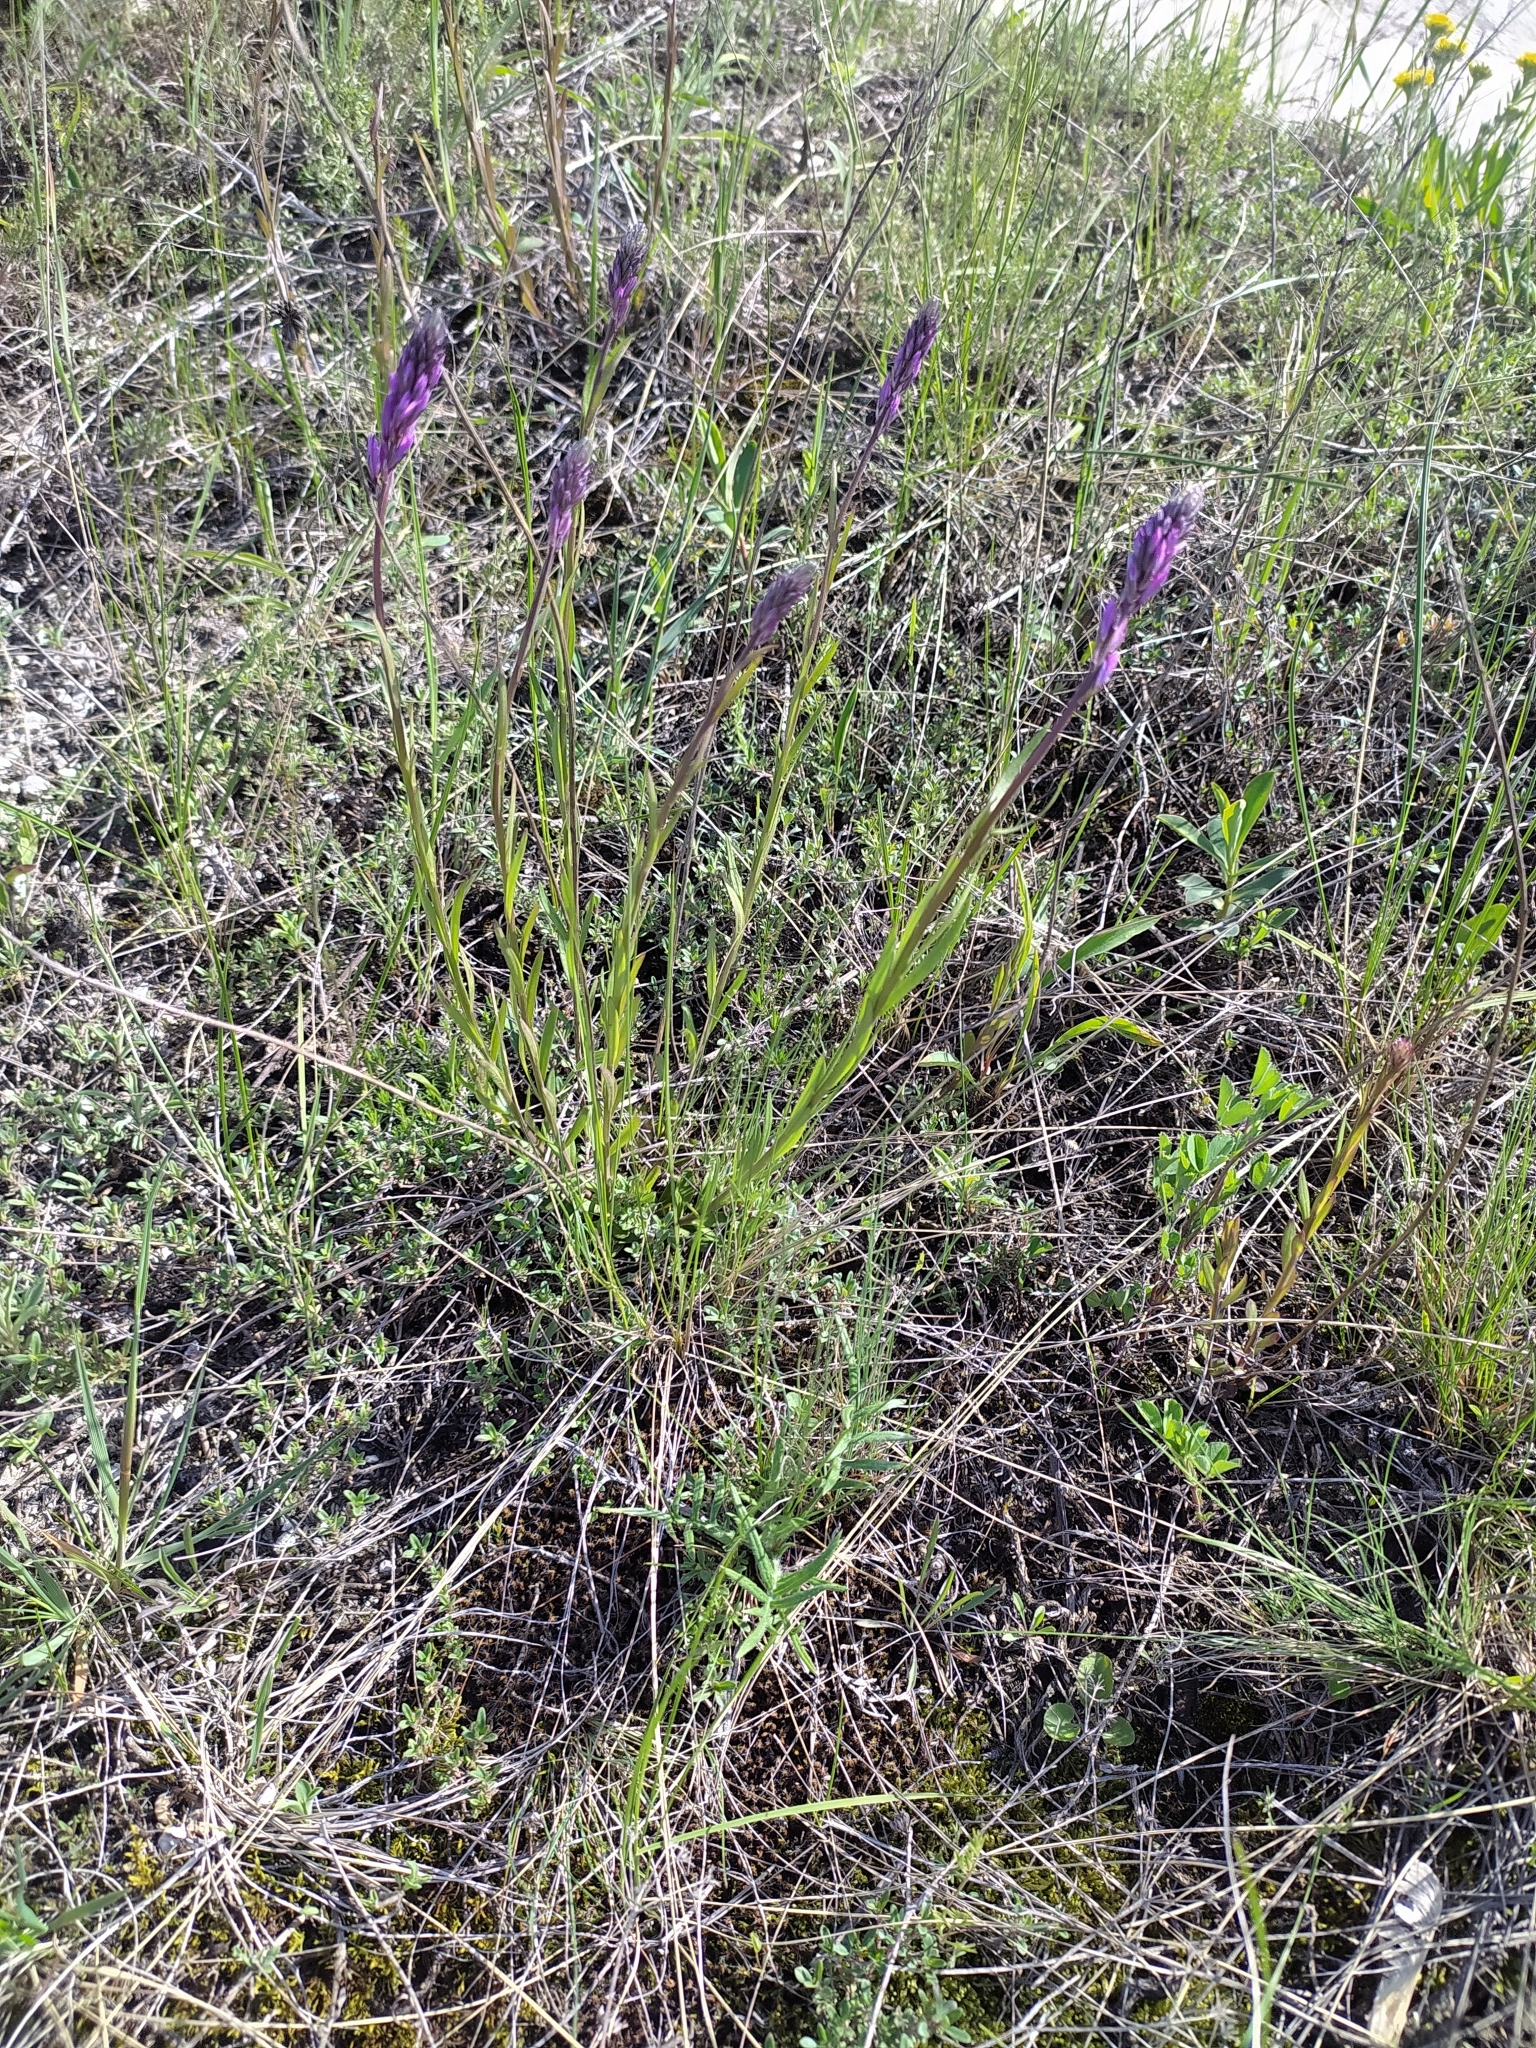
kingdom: Plantae
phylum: Tracheophyta
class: Magnoliopsida
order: Fabales
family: Polygalaceae
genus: Polygala
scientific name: Polygala nicaeensis
